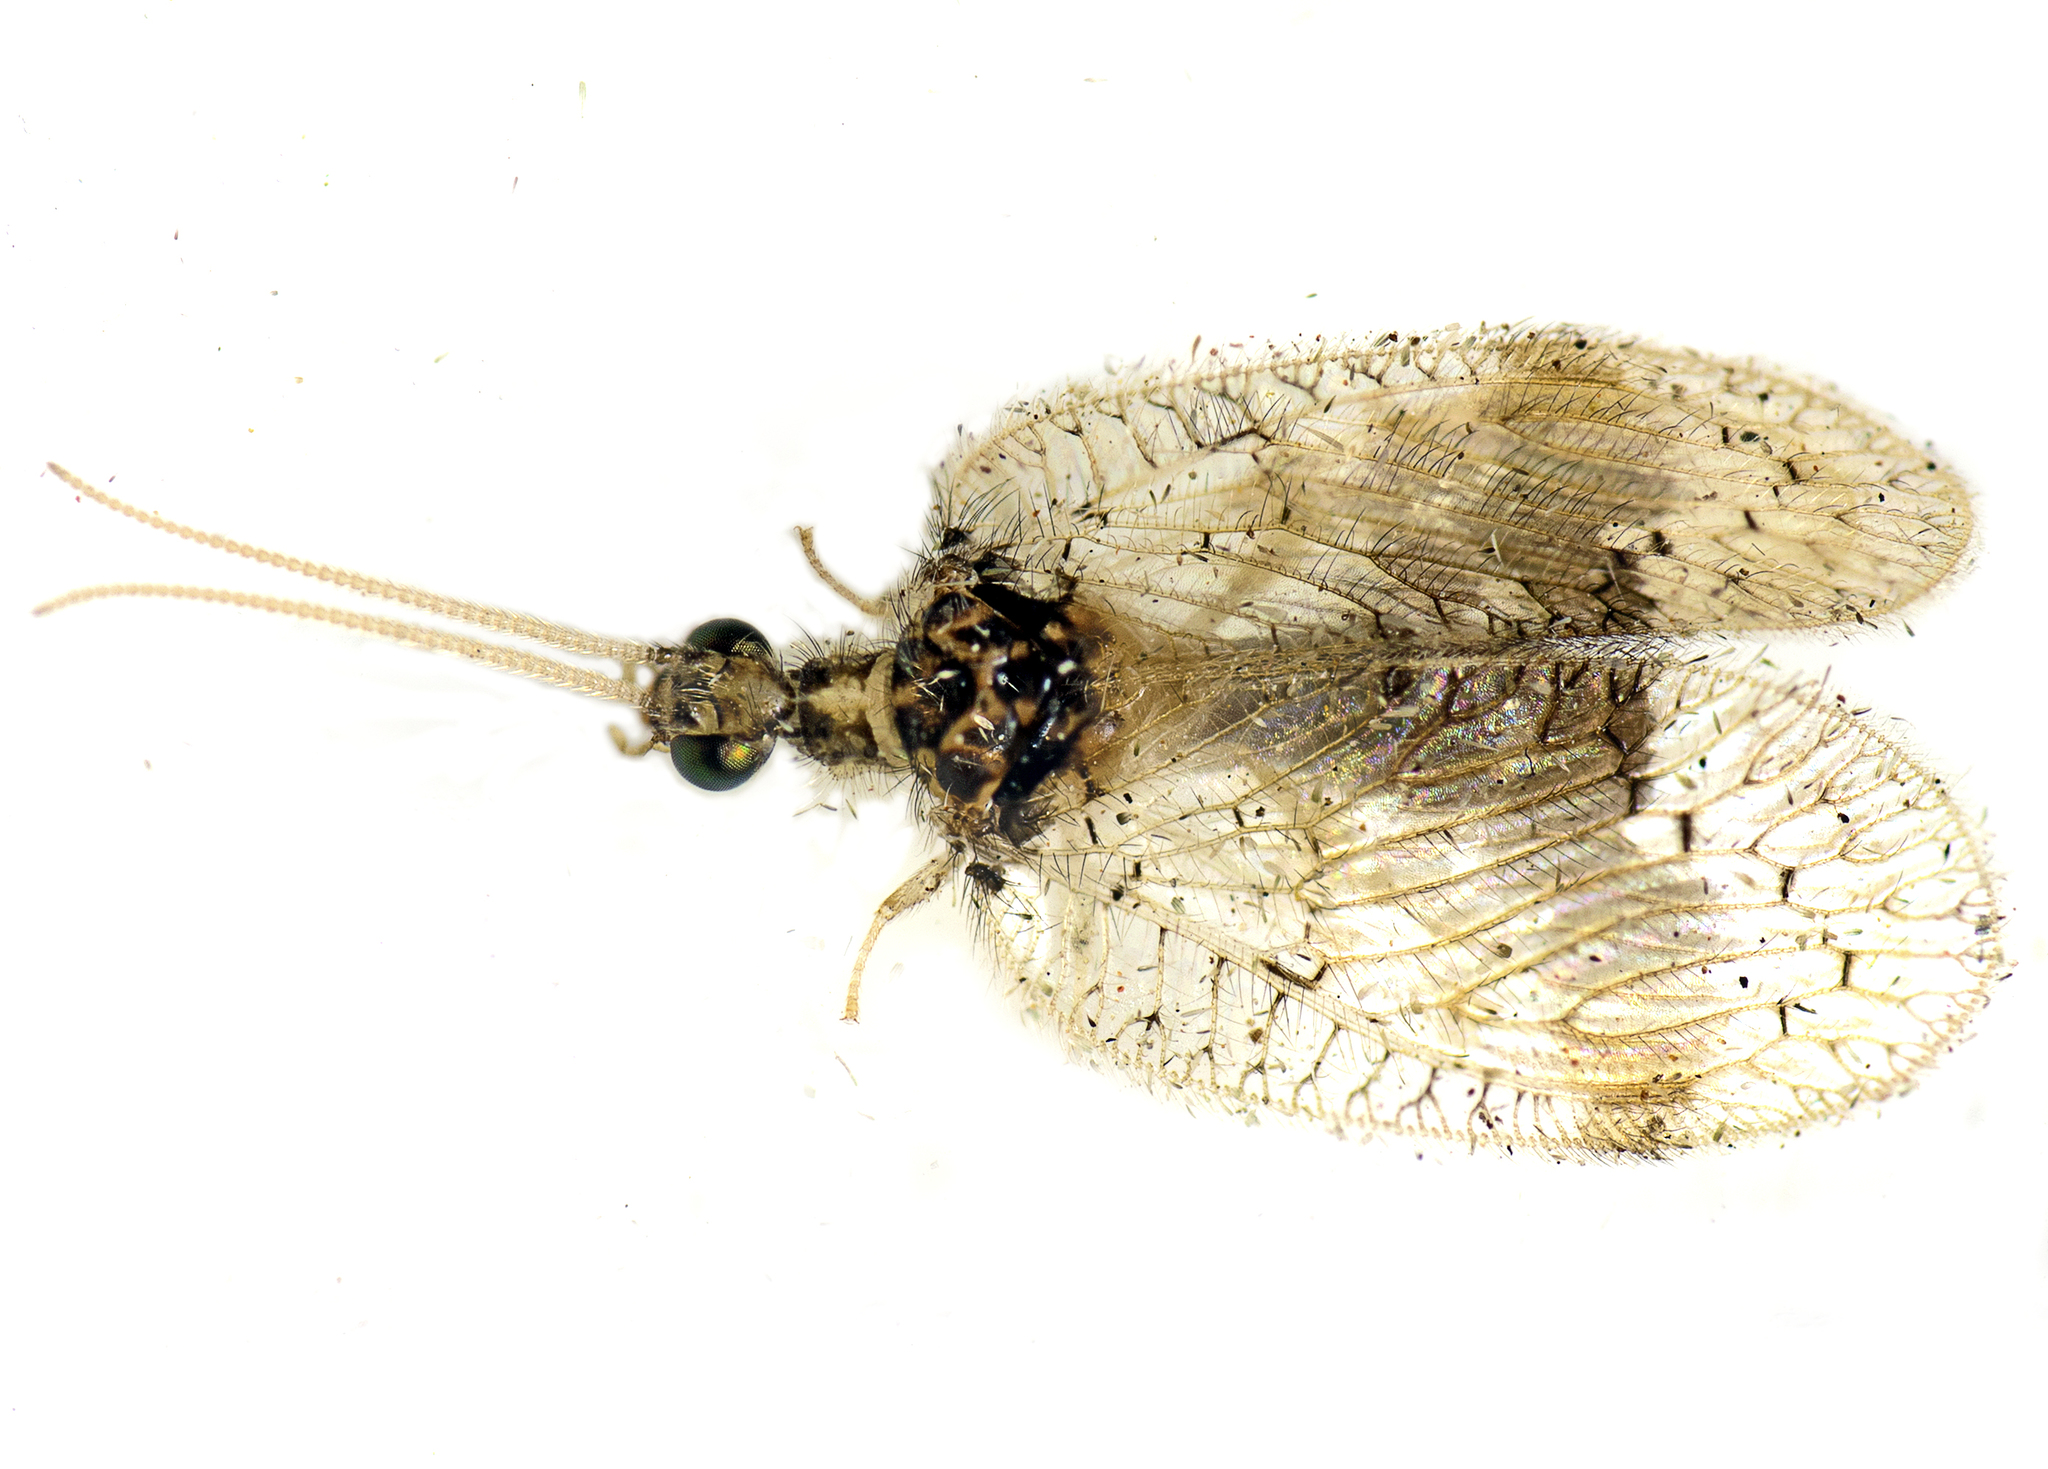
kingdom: Animalia
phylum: Arthropoda
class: Insecta
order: Neuroptera
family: Hemerobiidae
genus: Carobius
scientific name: Carobius pulchellus
